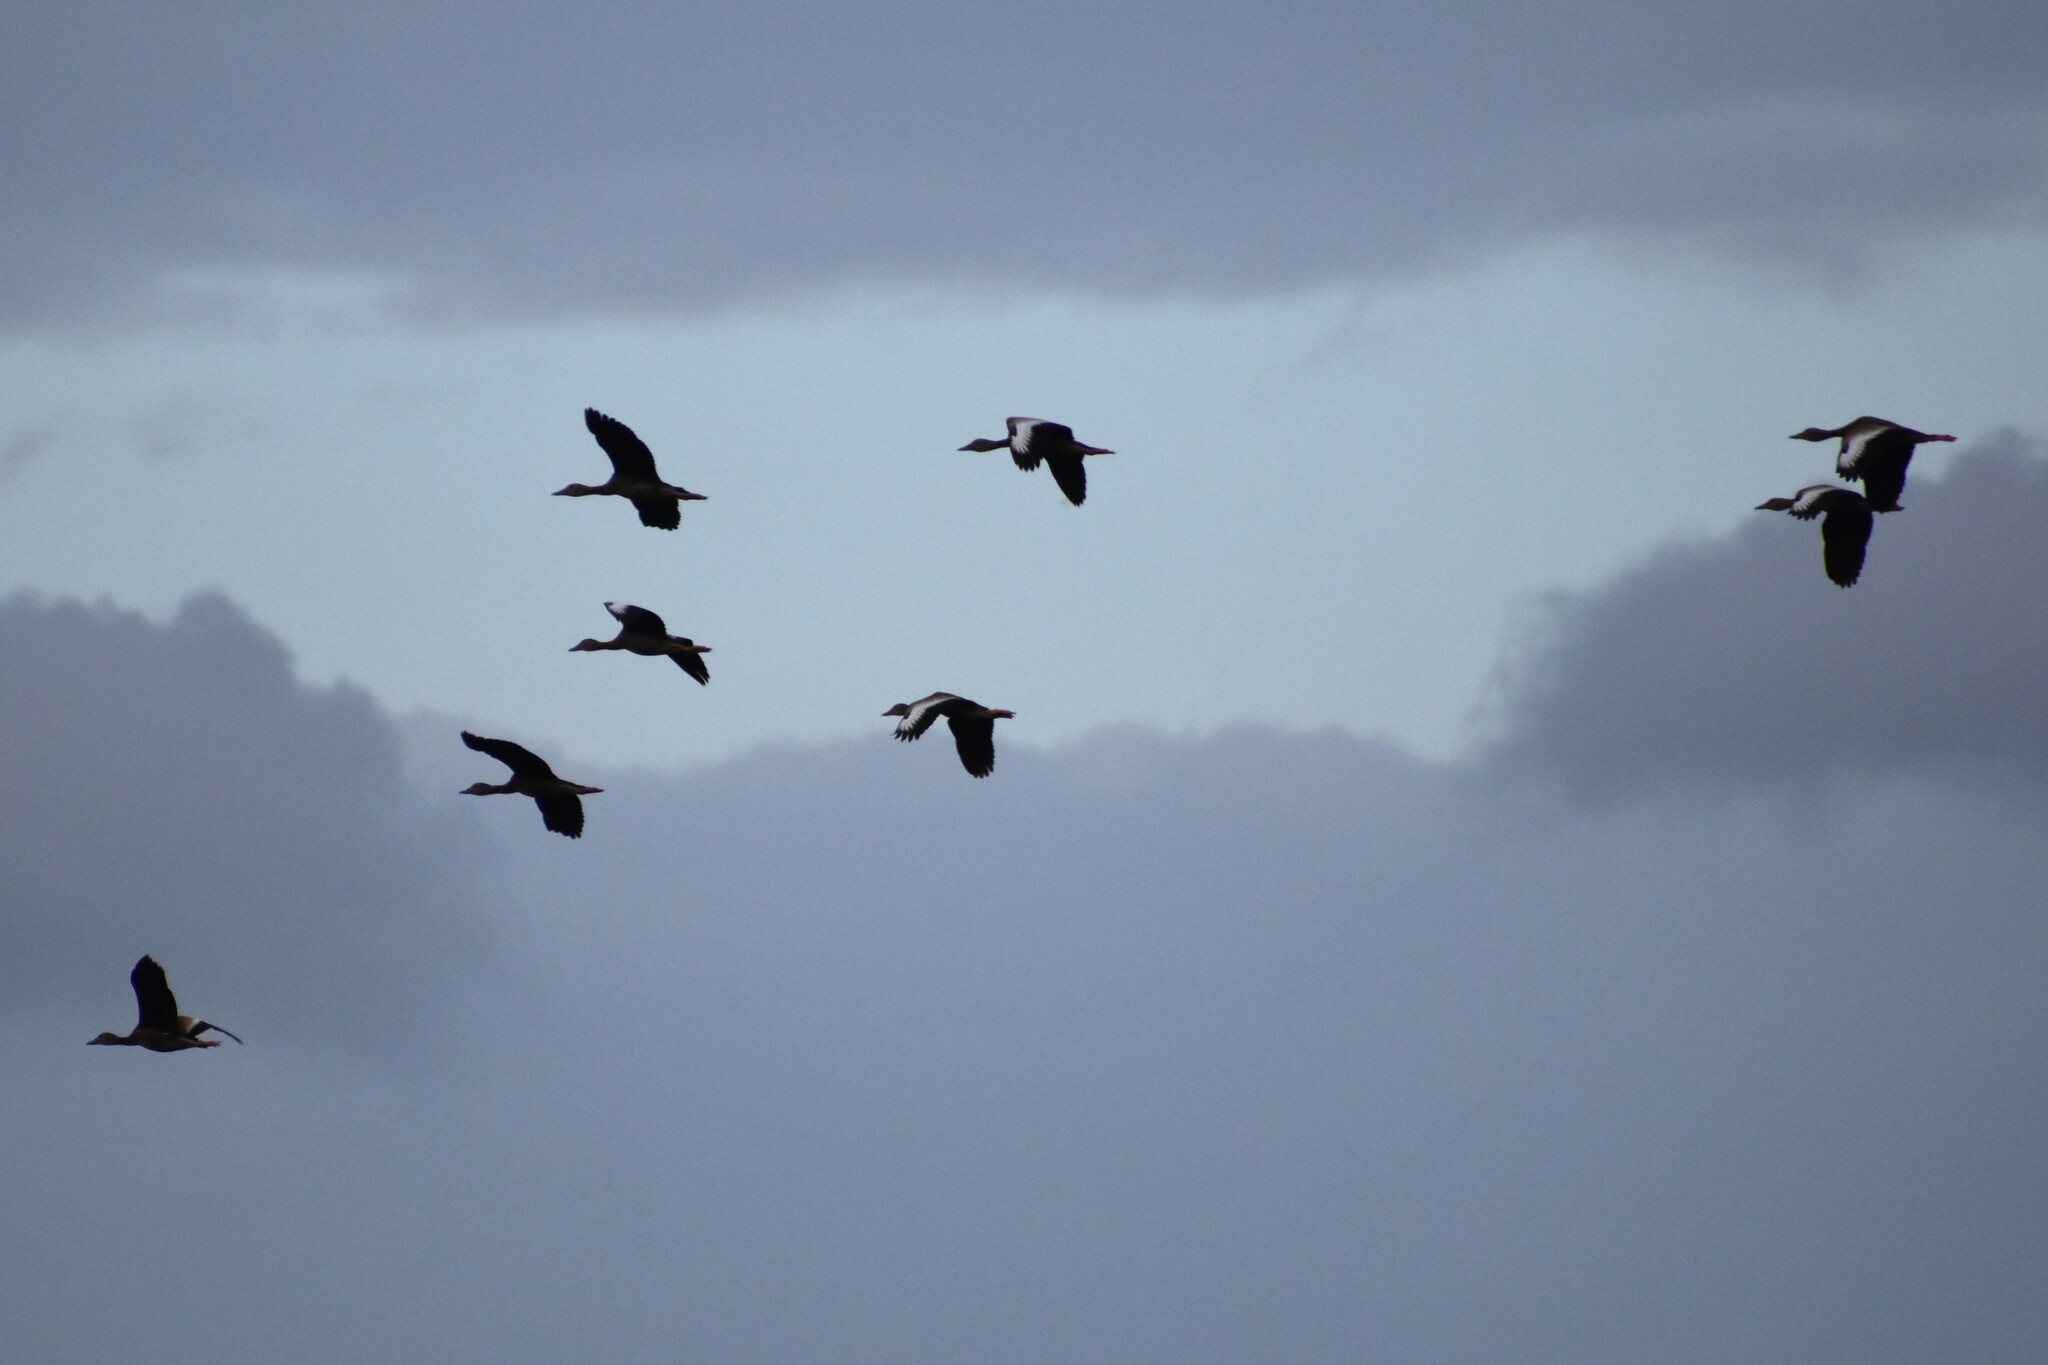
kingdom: Animalia
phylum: Chordata
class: Aves
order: Anseriformes
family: Anatidae
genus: Dendrocygna
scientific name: Dendrocygna autumnalis
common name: Black-bellied whistling duck
